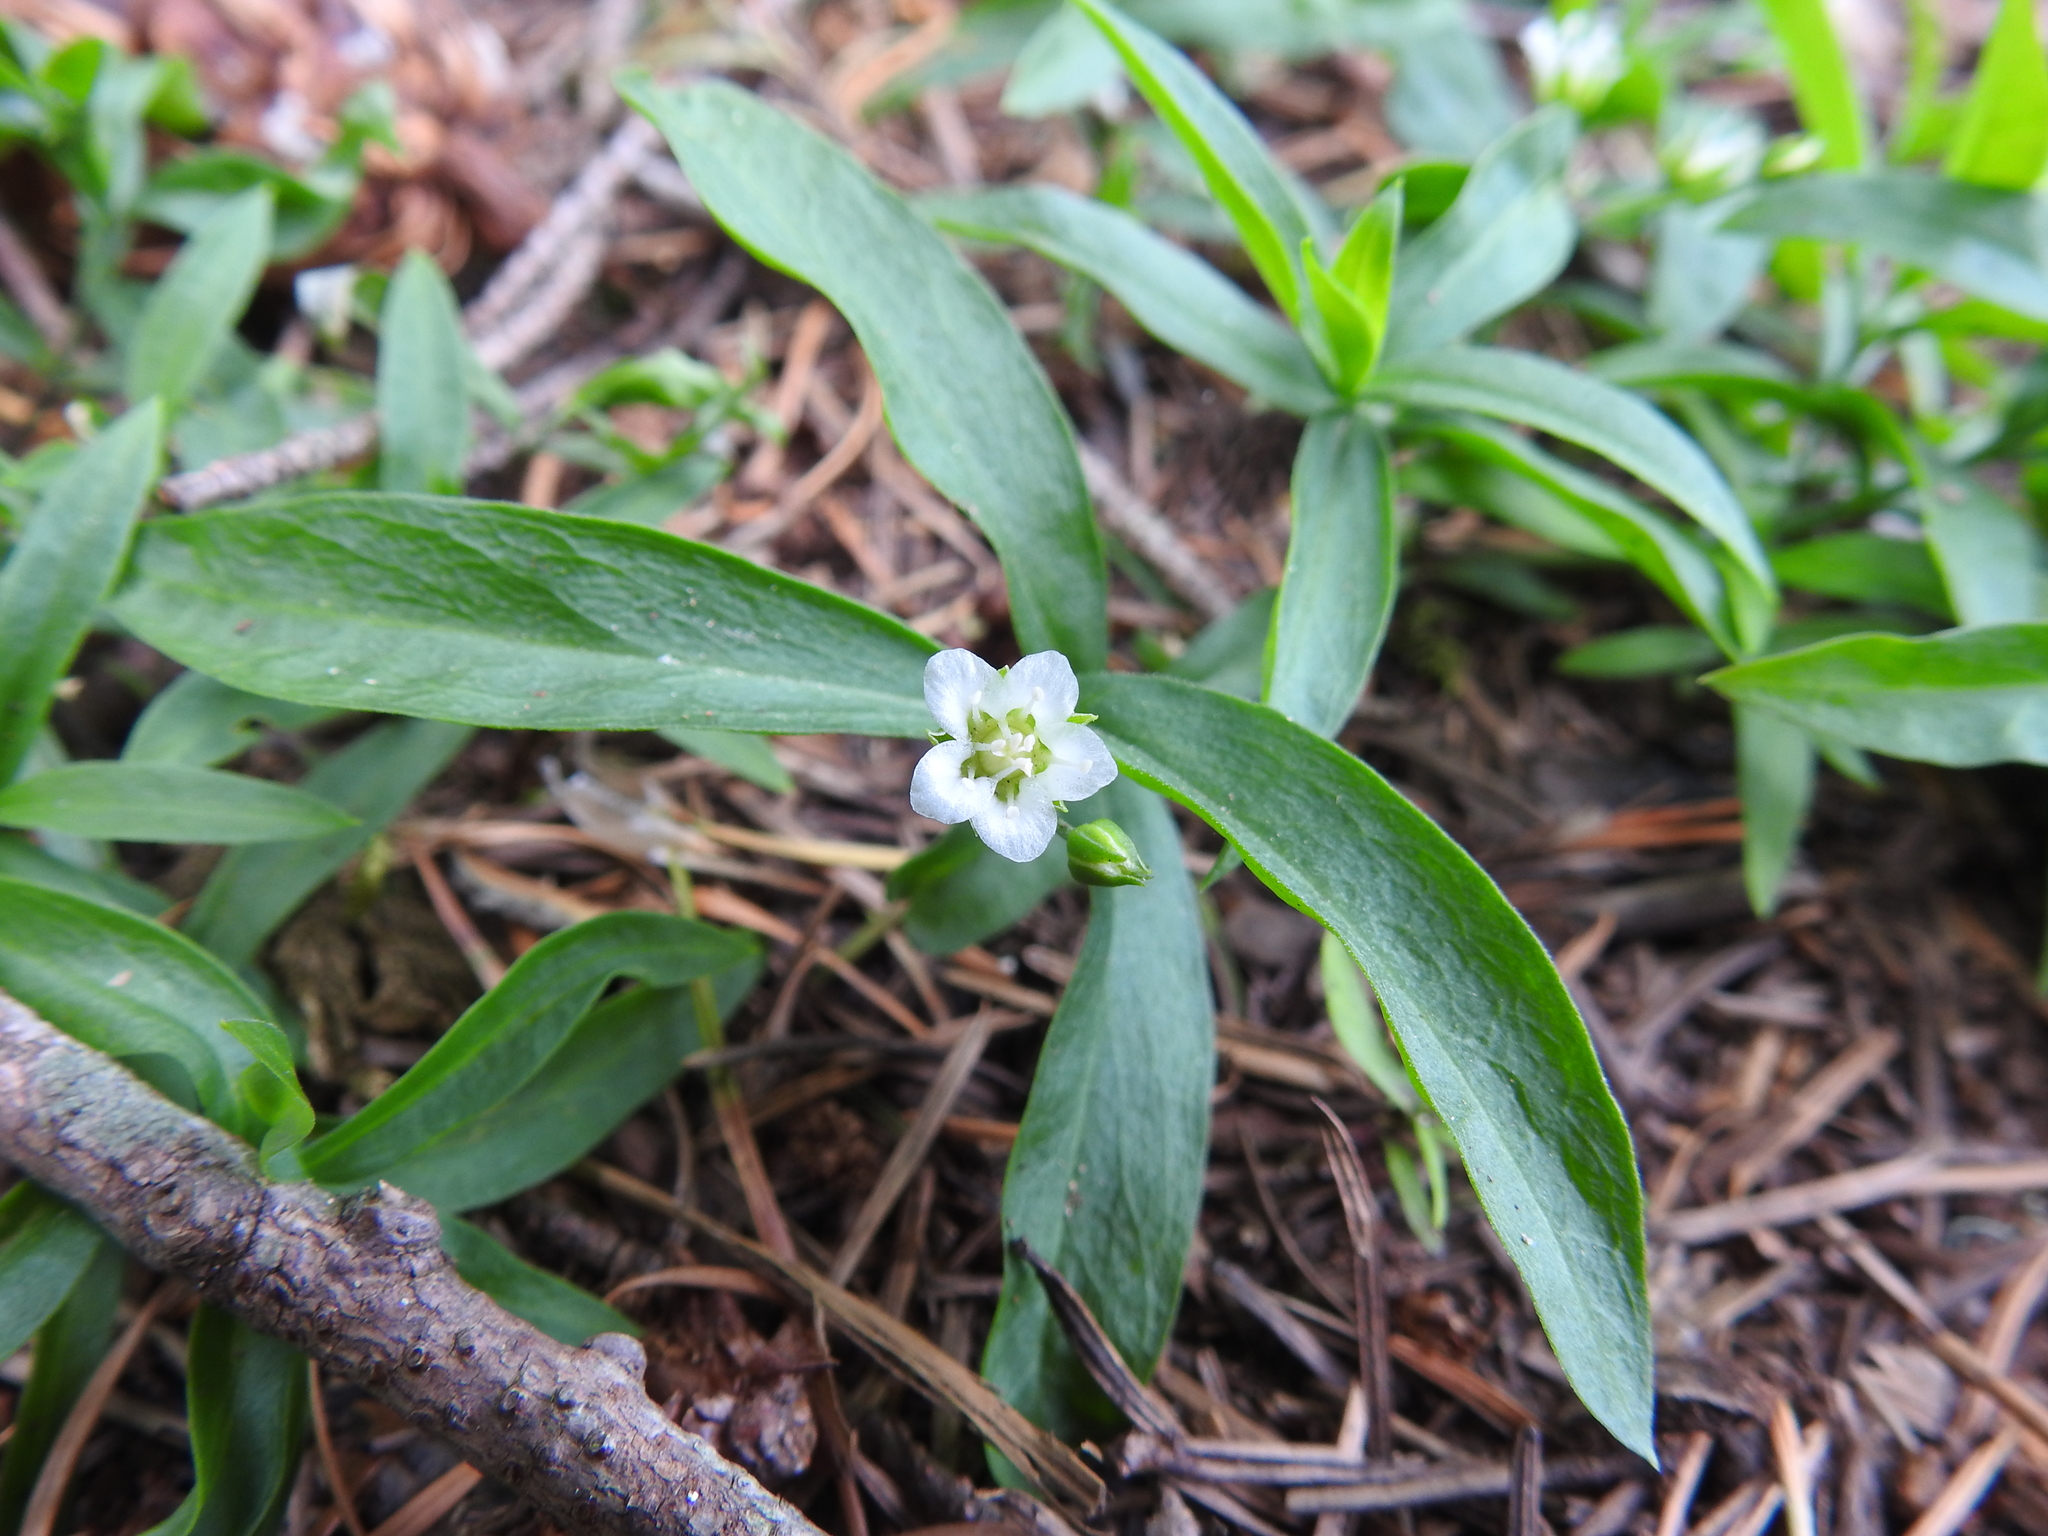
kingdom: Plantae
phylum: Tracheophyta
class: Magnoliopsida
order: Caryophyllales
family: Caryophyllaceae
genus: Moehringia
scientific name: Moehringia macrophylla
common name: Big-leaf sandwort
